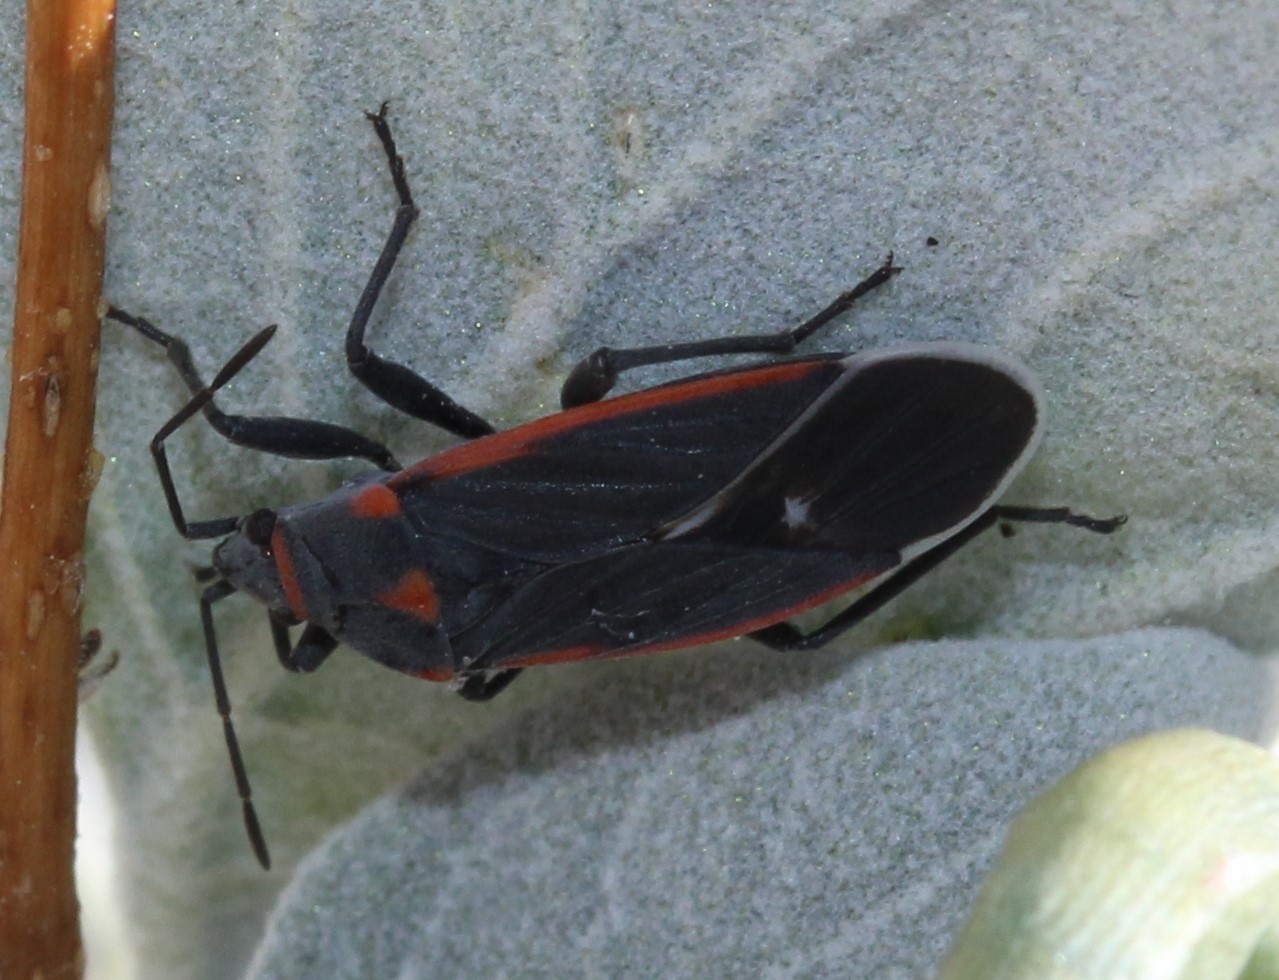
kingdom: Animalia
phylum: Arthropoda
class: Insecta
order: Hemiptera
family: Lygaeidae
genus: Melacoryphus
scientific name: Melacoryphus lateralis
